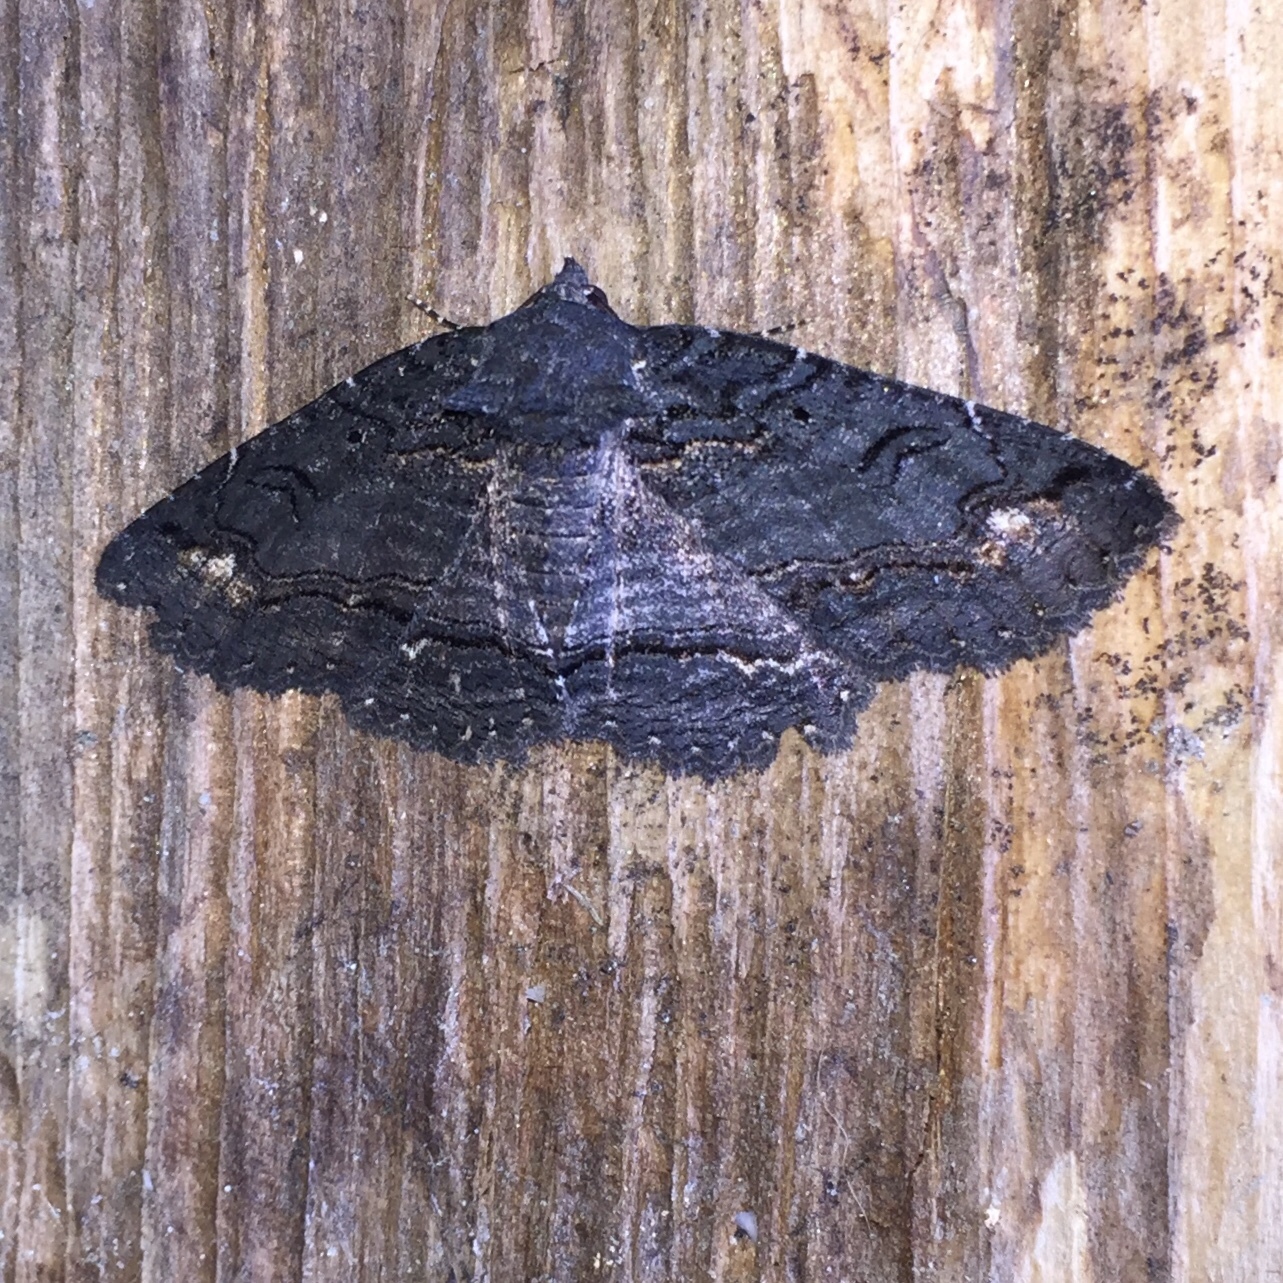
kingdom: Animalia
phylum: Arthropoda
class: Insecta
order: Lepidoptera
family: Erebidae
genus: Zale
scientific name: Zale undularis
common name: Black zale moth
